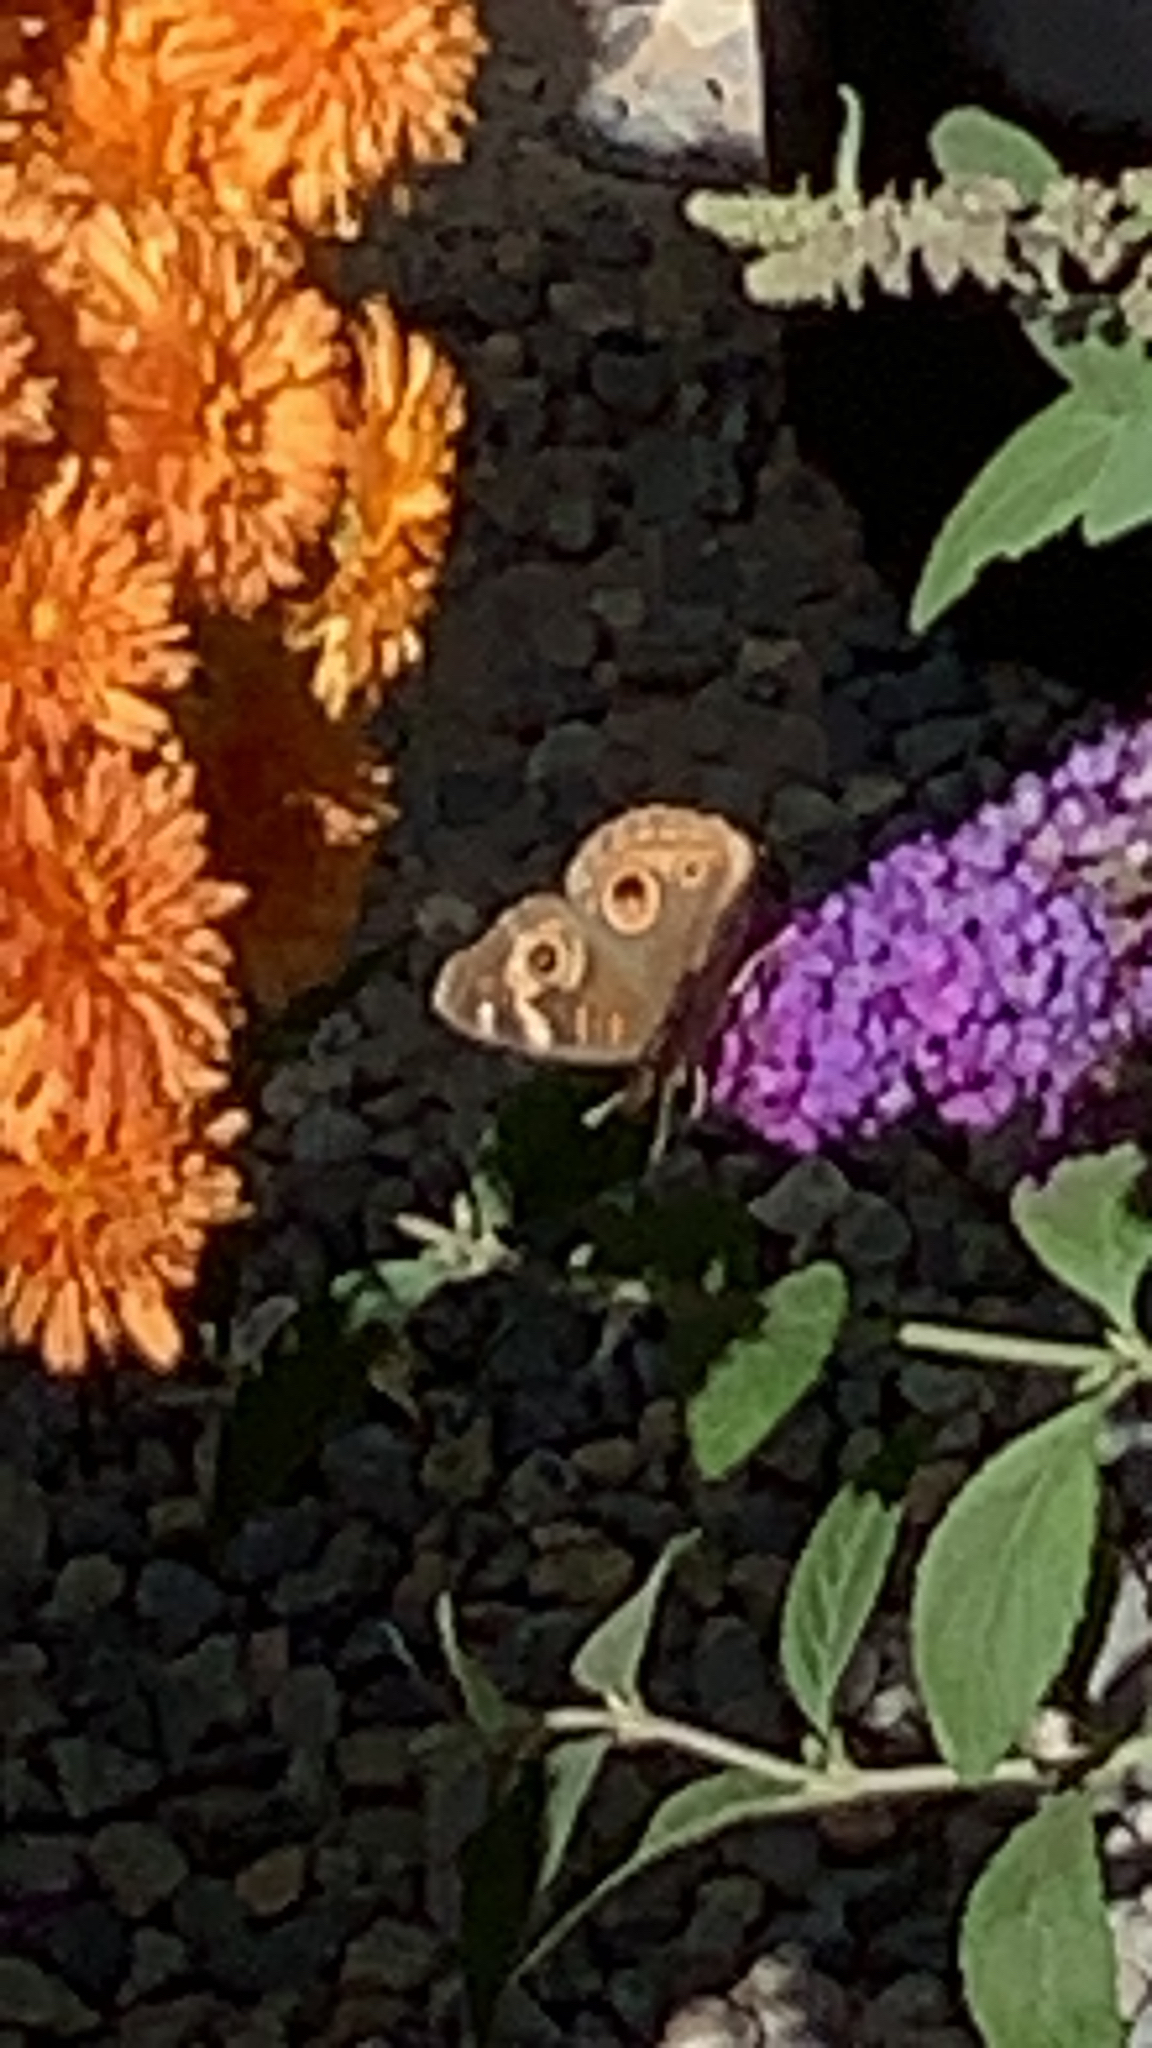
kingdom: Animalia
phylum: Arthropoda
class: Insecta
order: Lepidoptera
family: Nymphalidae
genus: Junonia
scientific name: Junonia grisea
